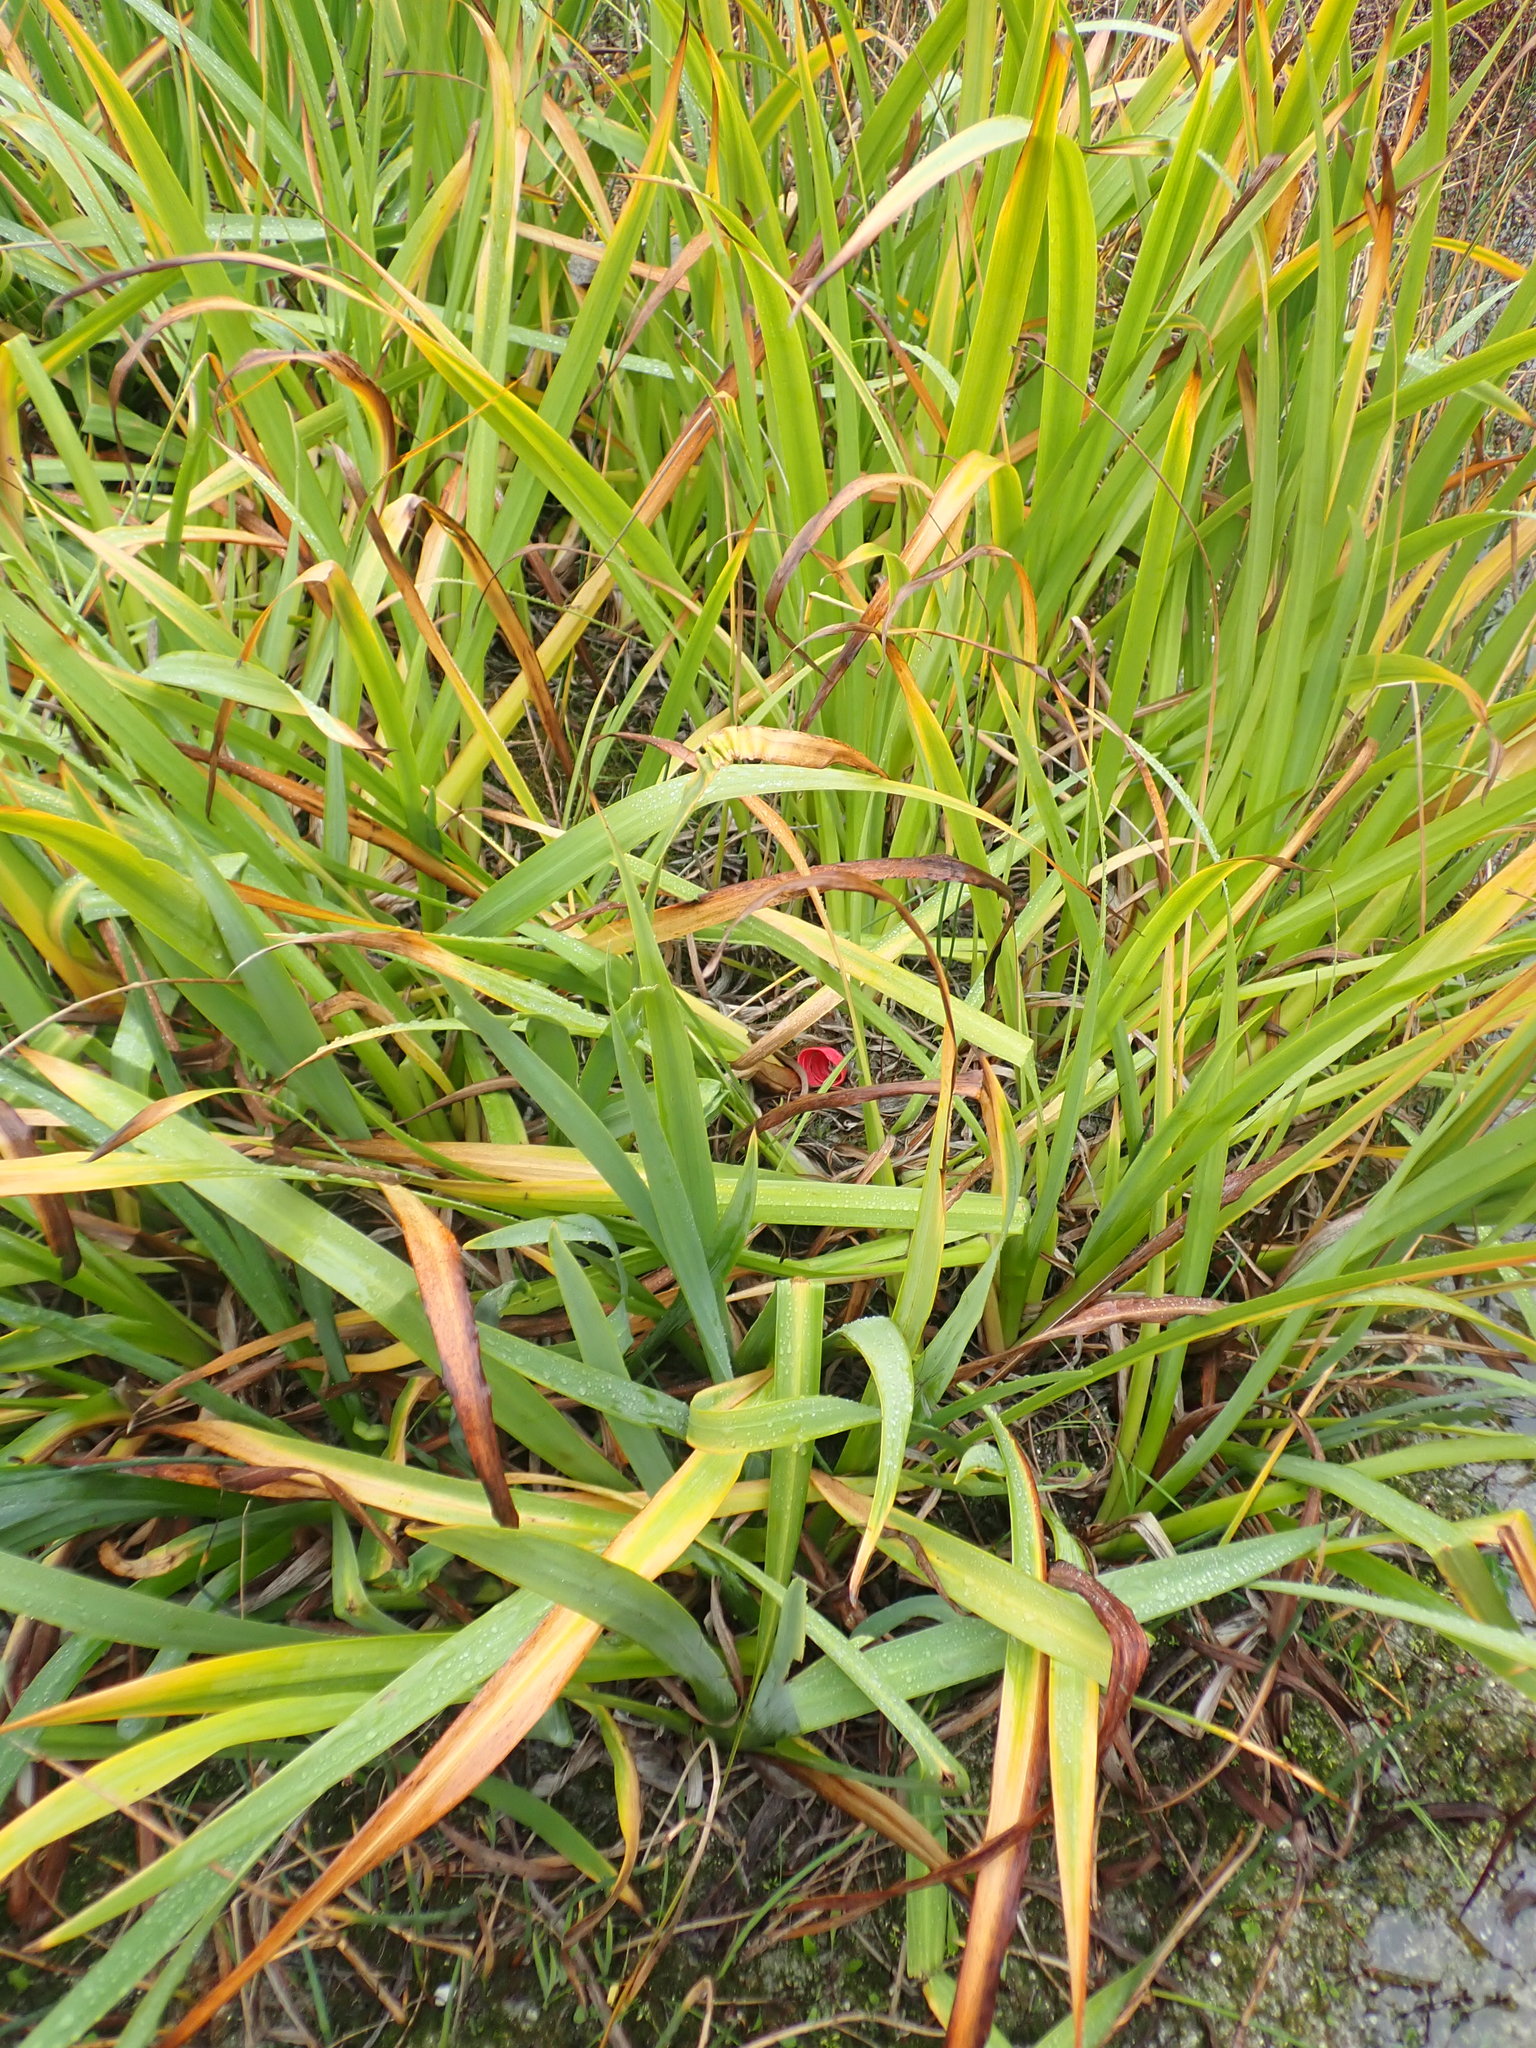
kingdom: Plantae
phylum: Tracheophyta
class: Liliopsida
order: Asparagales
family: Iridaceae
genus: Iris
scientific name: Iris pseudacorus
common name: Yellow flag
